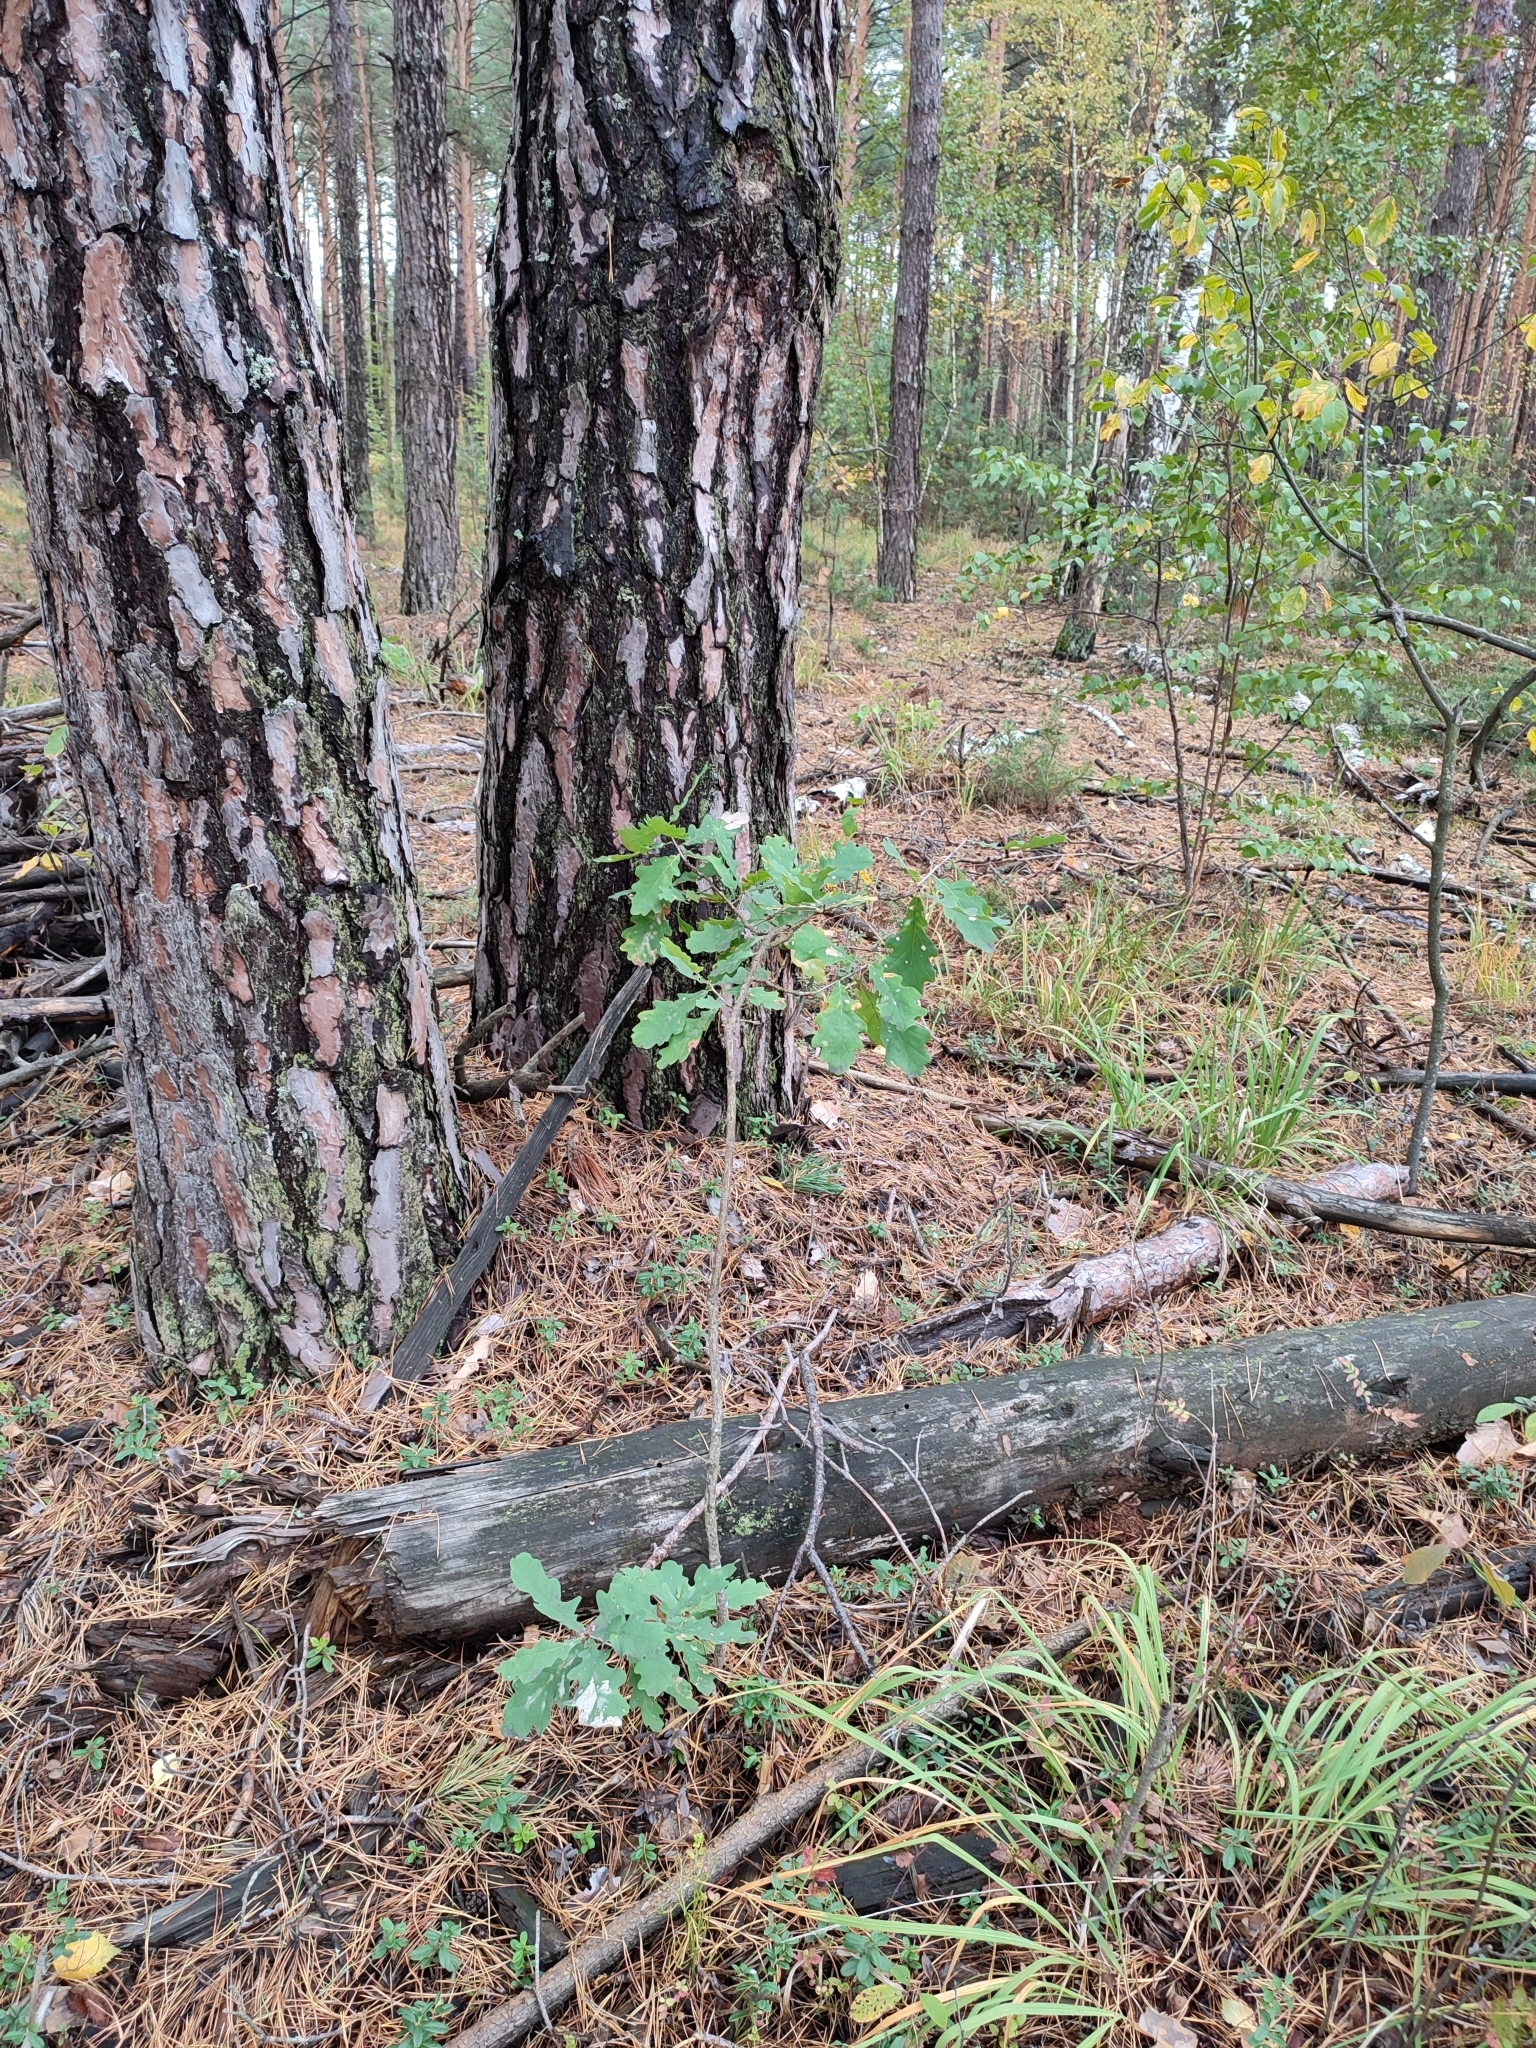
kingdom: Plantae
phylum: Tracheophyta
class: Magnoliopsida
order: Fagales
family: Fagaceae
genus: Quercus
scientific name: Quercus robur
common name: Pedunculate oak
